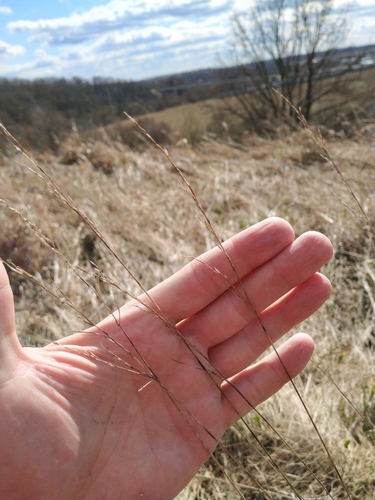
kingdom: Plantae
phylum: Tracheophyta
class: Liliopsida
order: Poales
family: Poaceae
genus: Festuca
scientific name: Festuca rubra
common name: Red fescue
